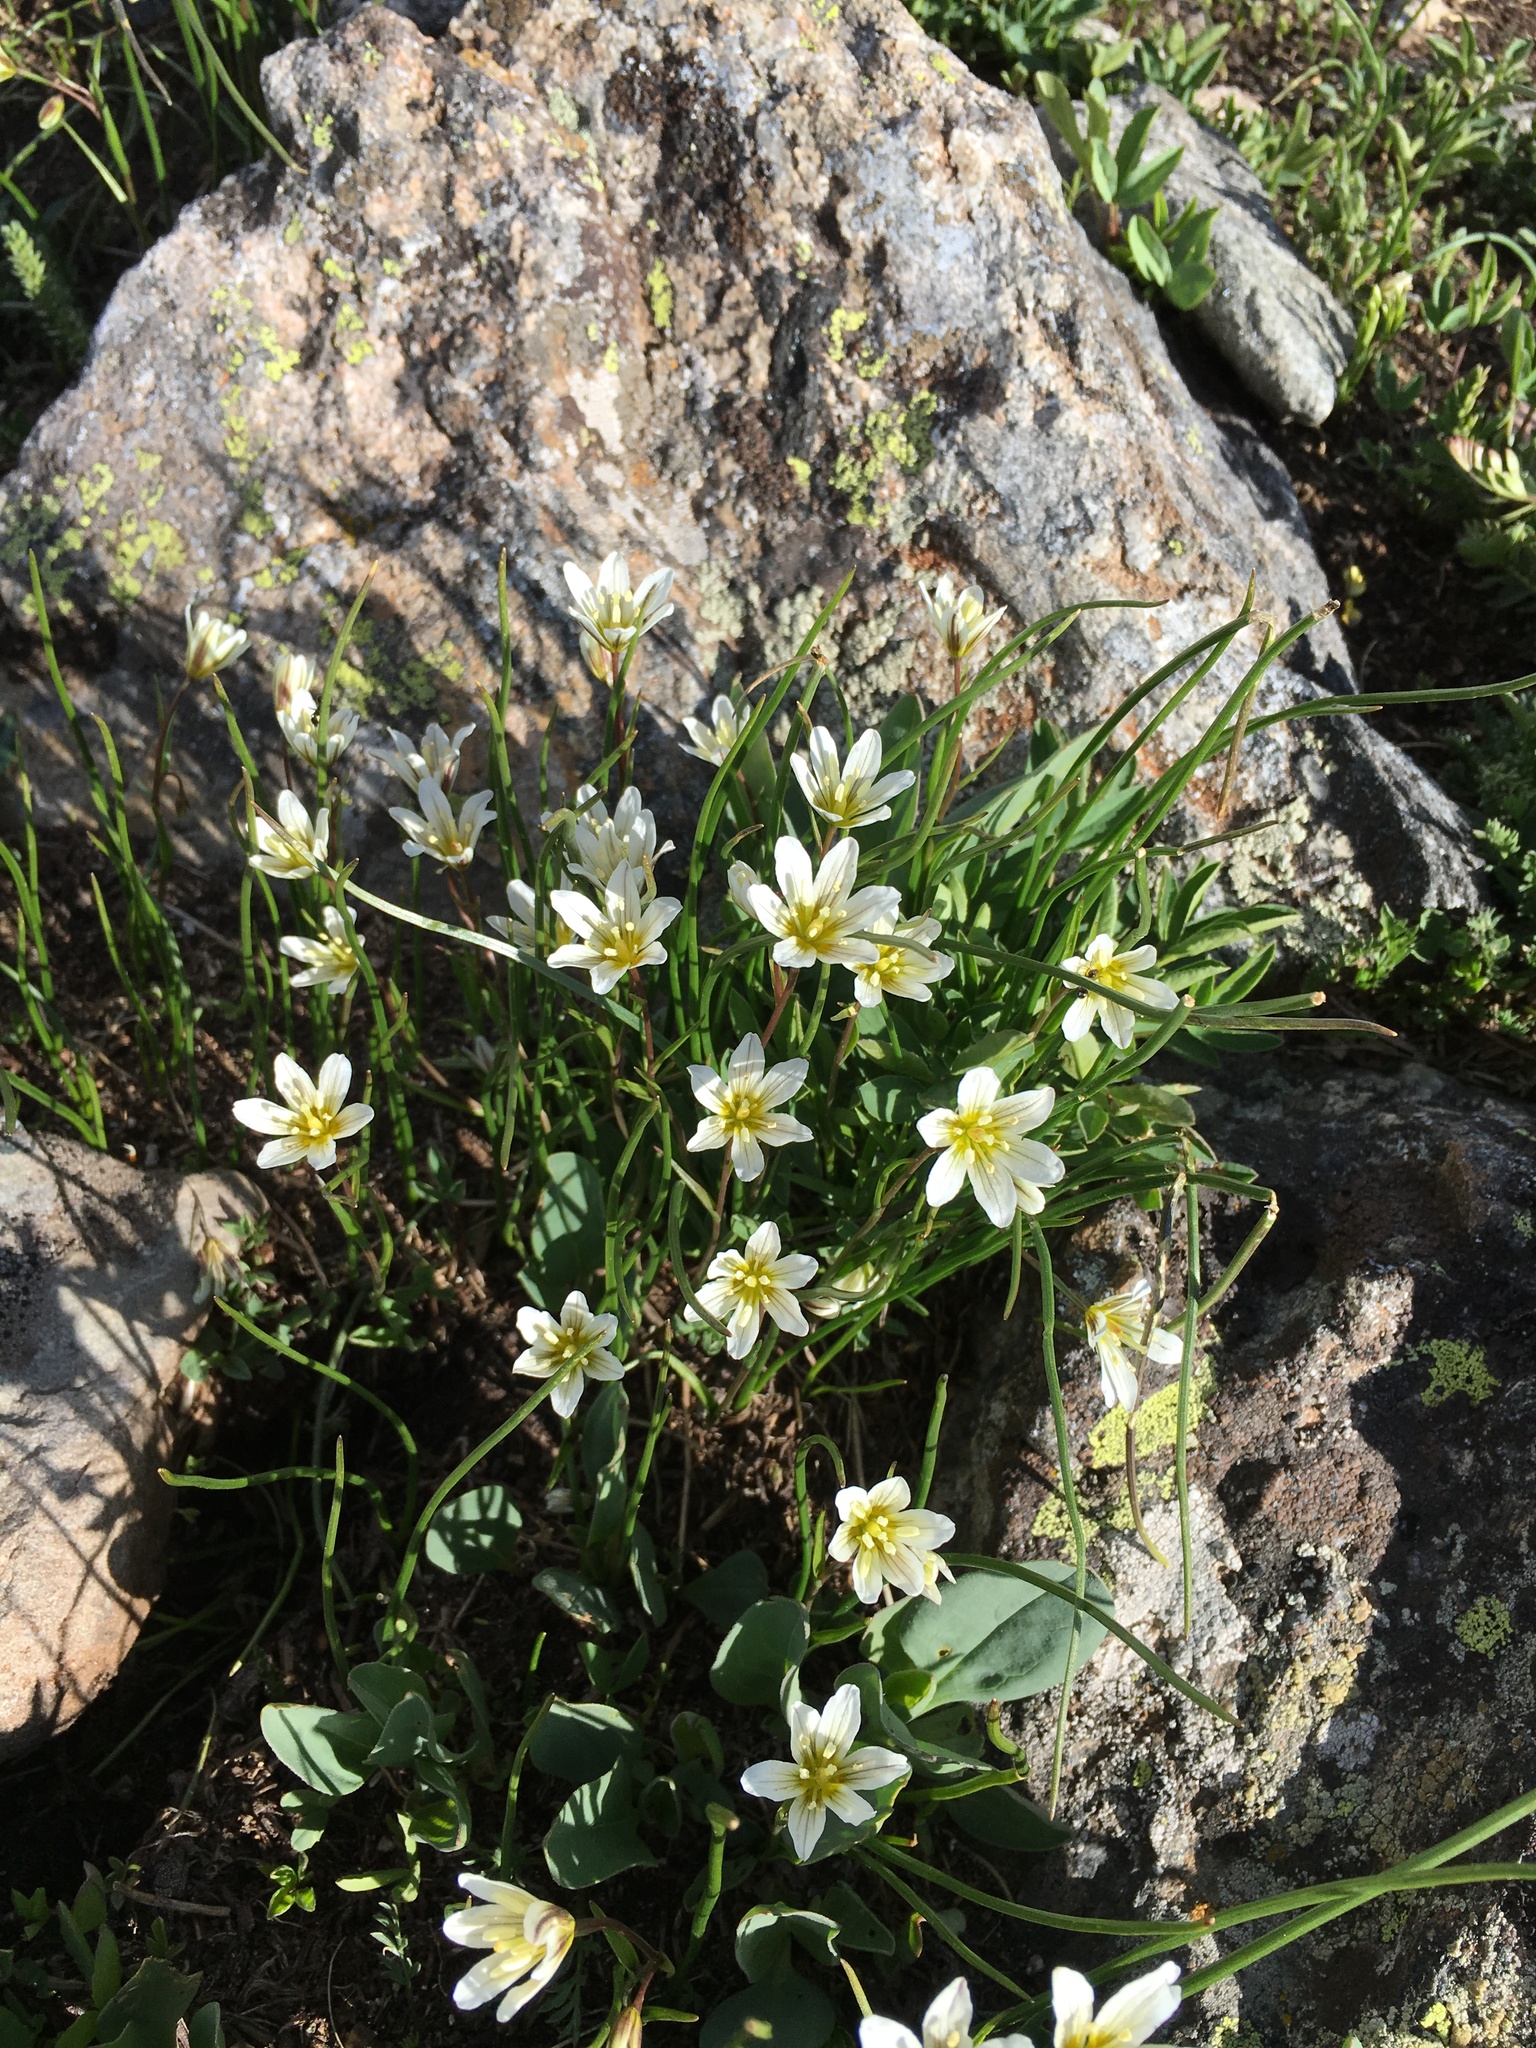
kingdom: Plantae
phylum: Tracheophyta
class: Liliopsida
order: Liliales
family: Liliaceae
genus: Gagea
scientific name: Gagea serotina
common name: Snowdon lily
